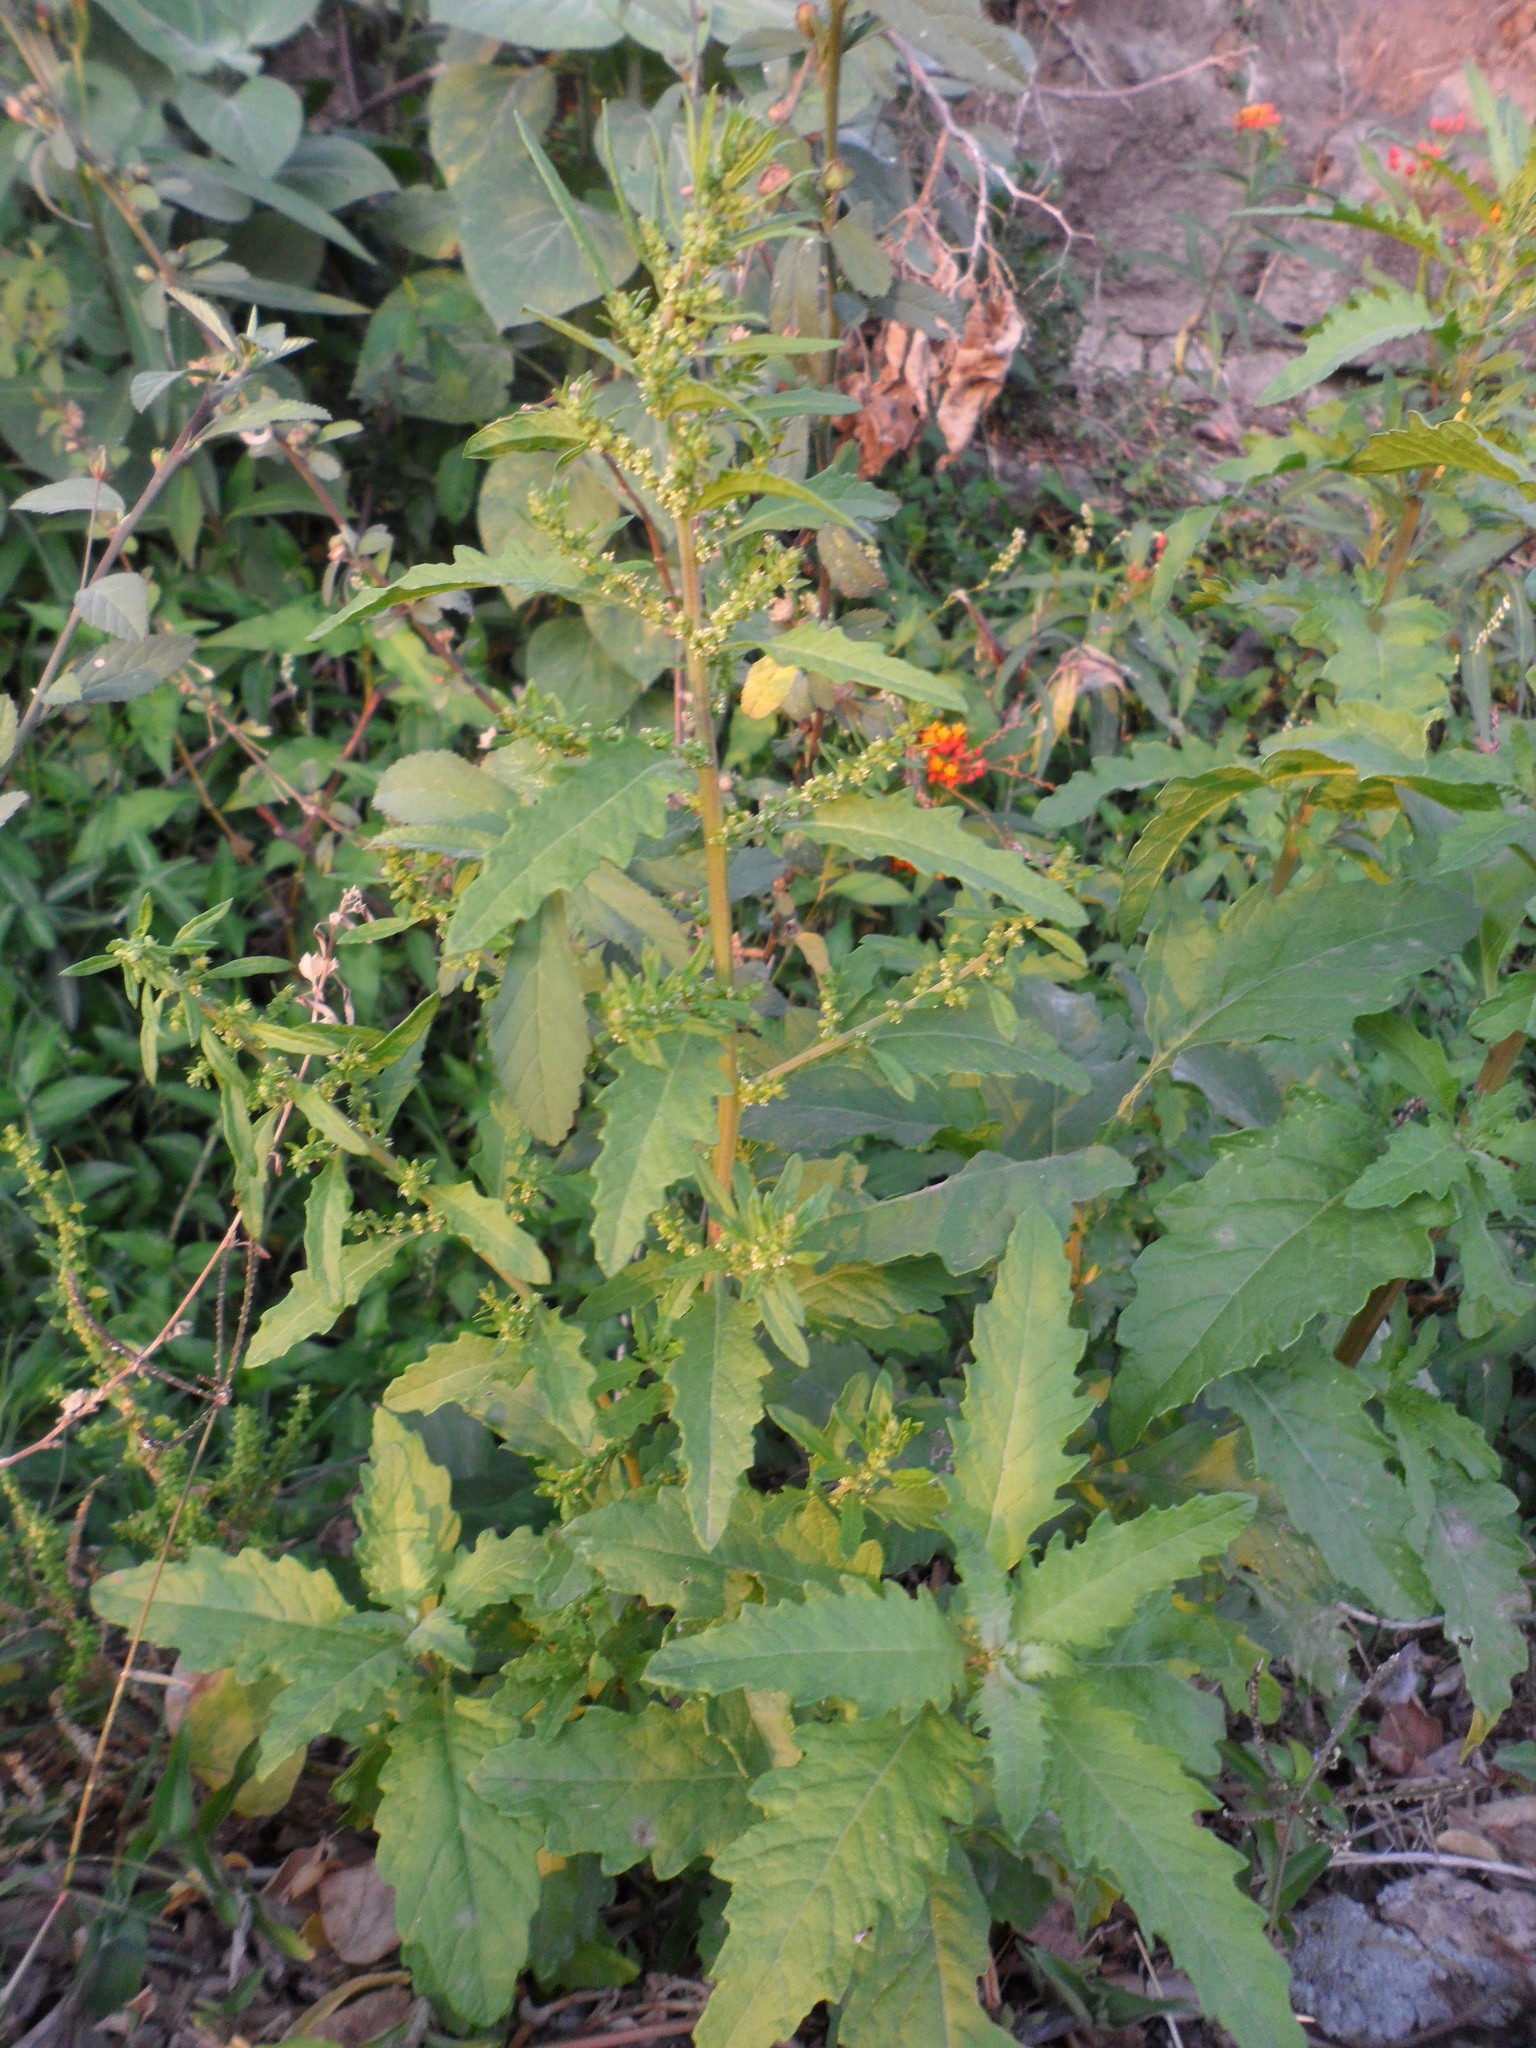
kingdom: Plantae
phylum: Tracheophyta
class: Magnoliopsida
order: Caryophyllales
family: Amaranthaceae
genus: Dysphania
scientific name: Dysphania ambrosioides
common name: Wormseed
